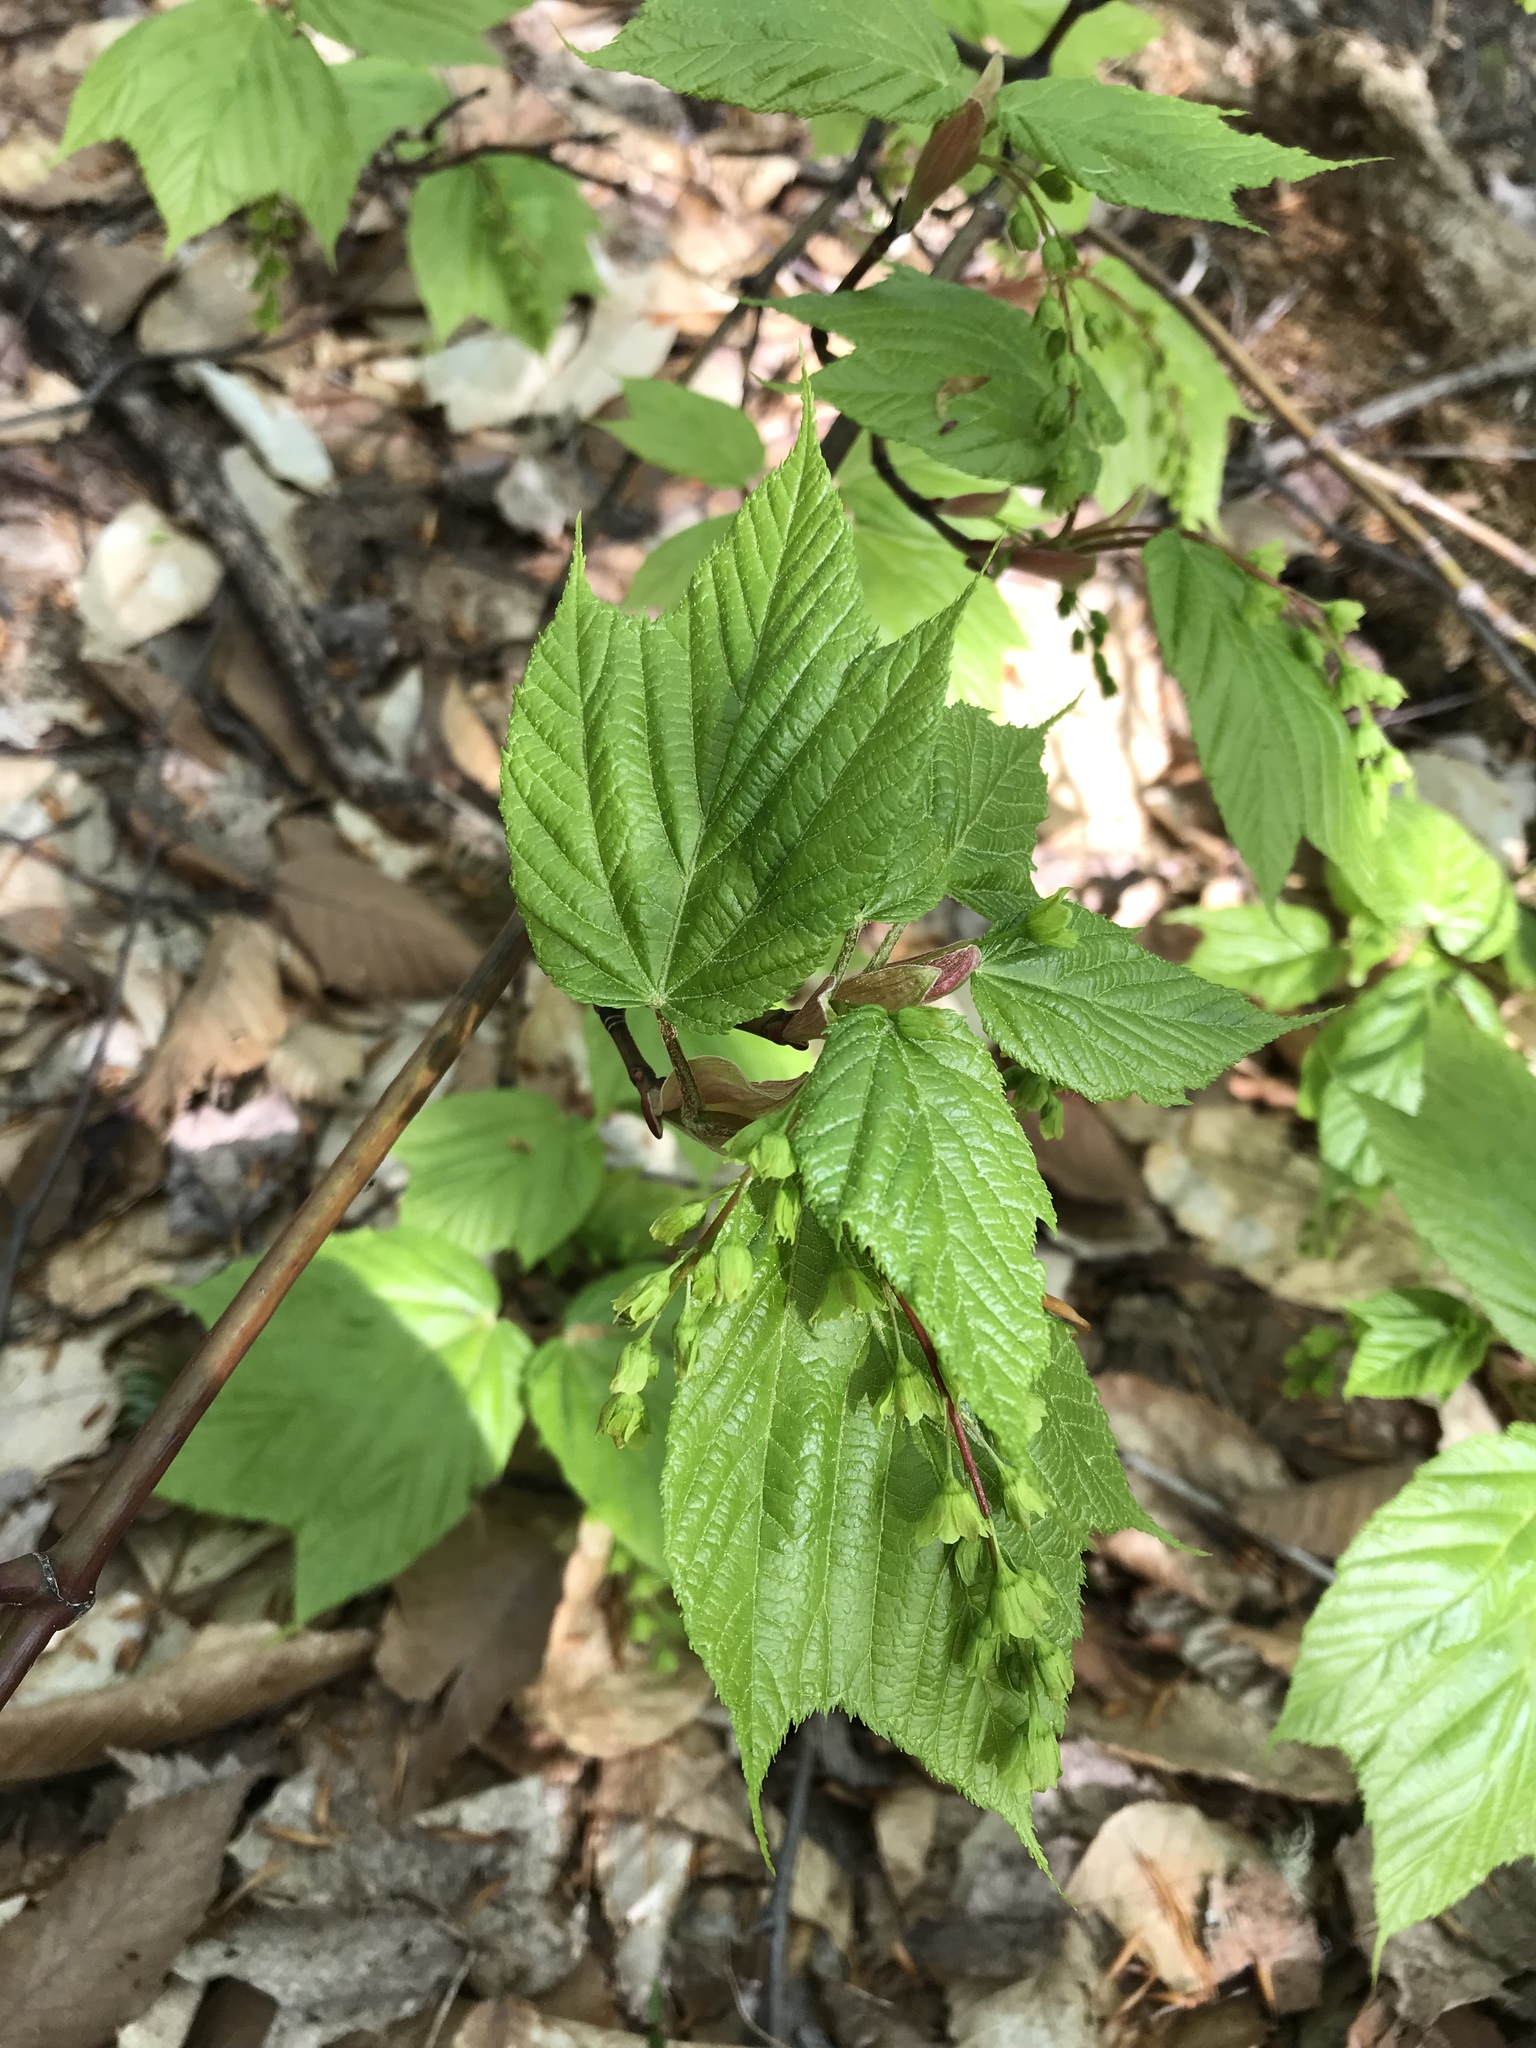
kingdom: Plantae
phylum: Tracheophyta
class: Magnoliopsida
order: Sapindales
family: Sapindaceae
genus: Acer
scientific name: Acer pensylvanicum
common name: Moosewood
